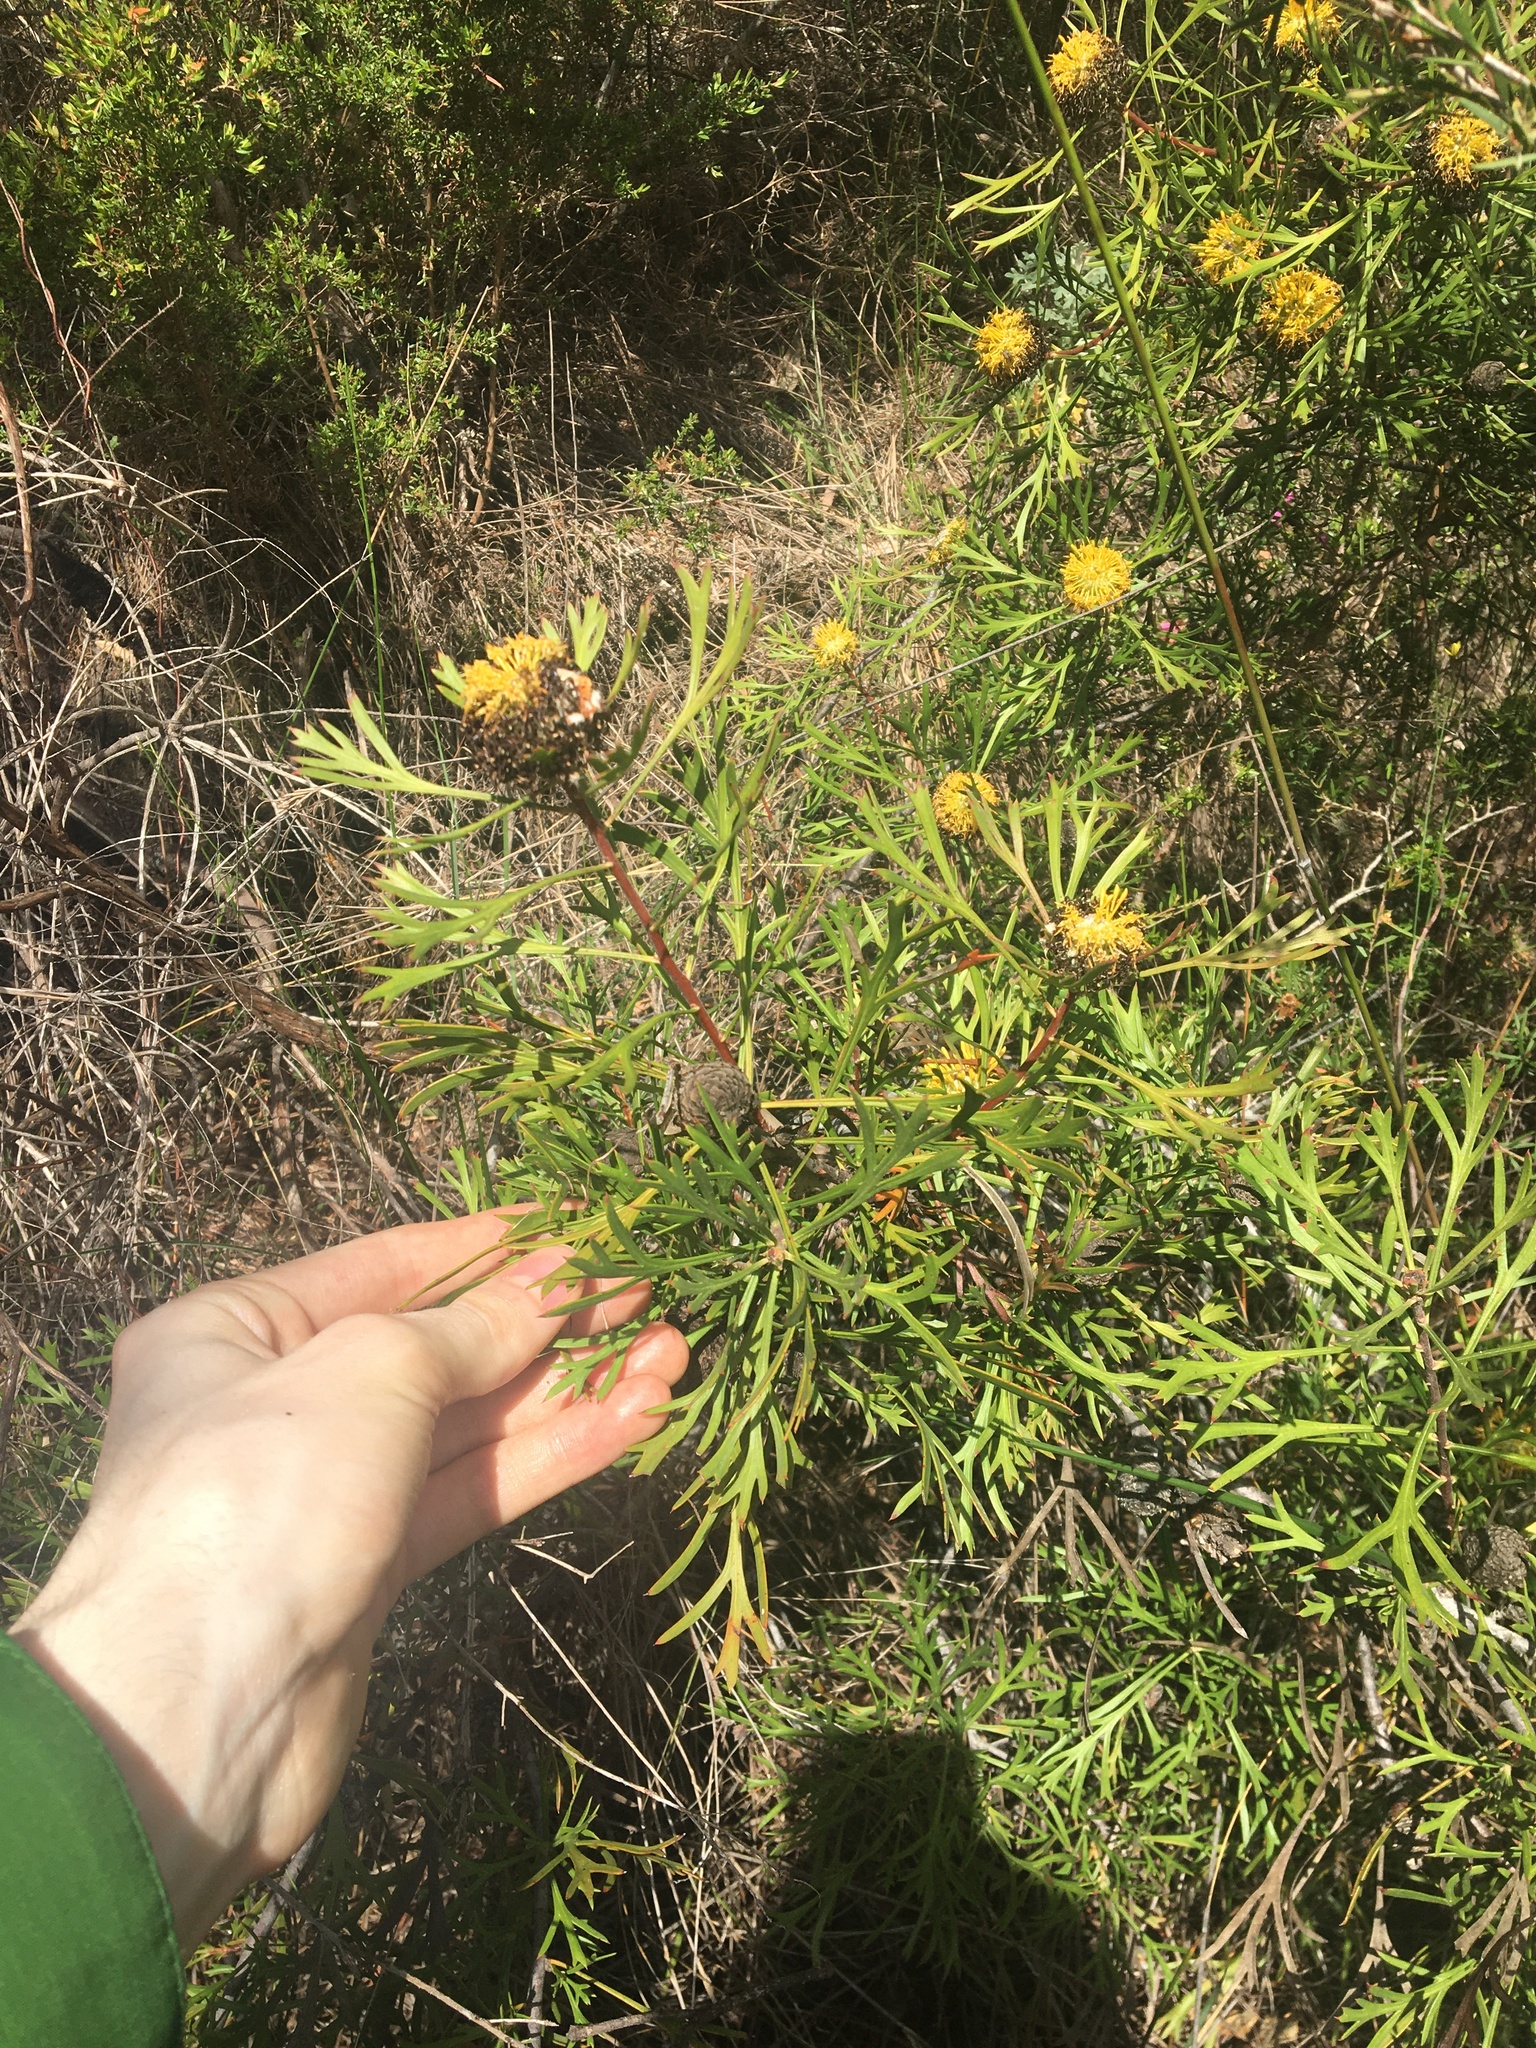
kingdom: Plantae
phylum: Tracheophyta
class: Magnoliopsida
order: Proteales
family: Proteaceae
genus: Isopogon
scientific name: Isopogon anemonifolius
